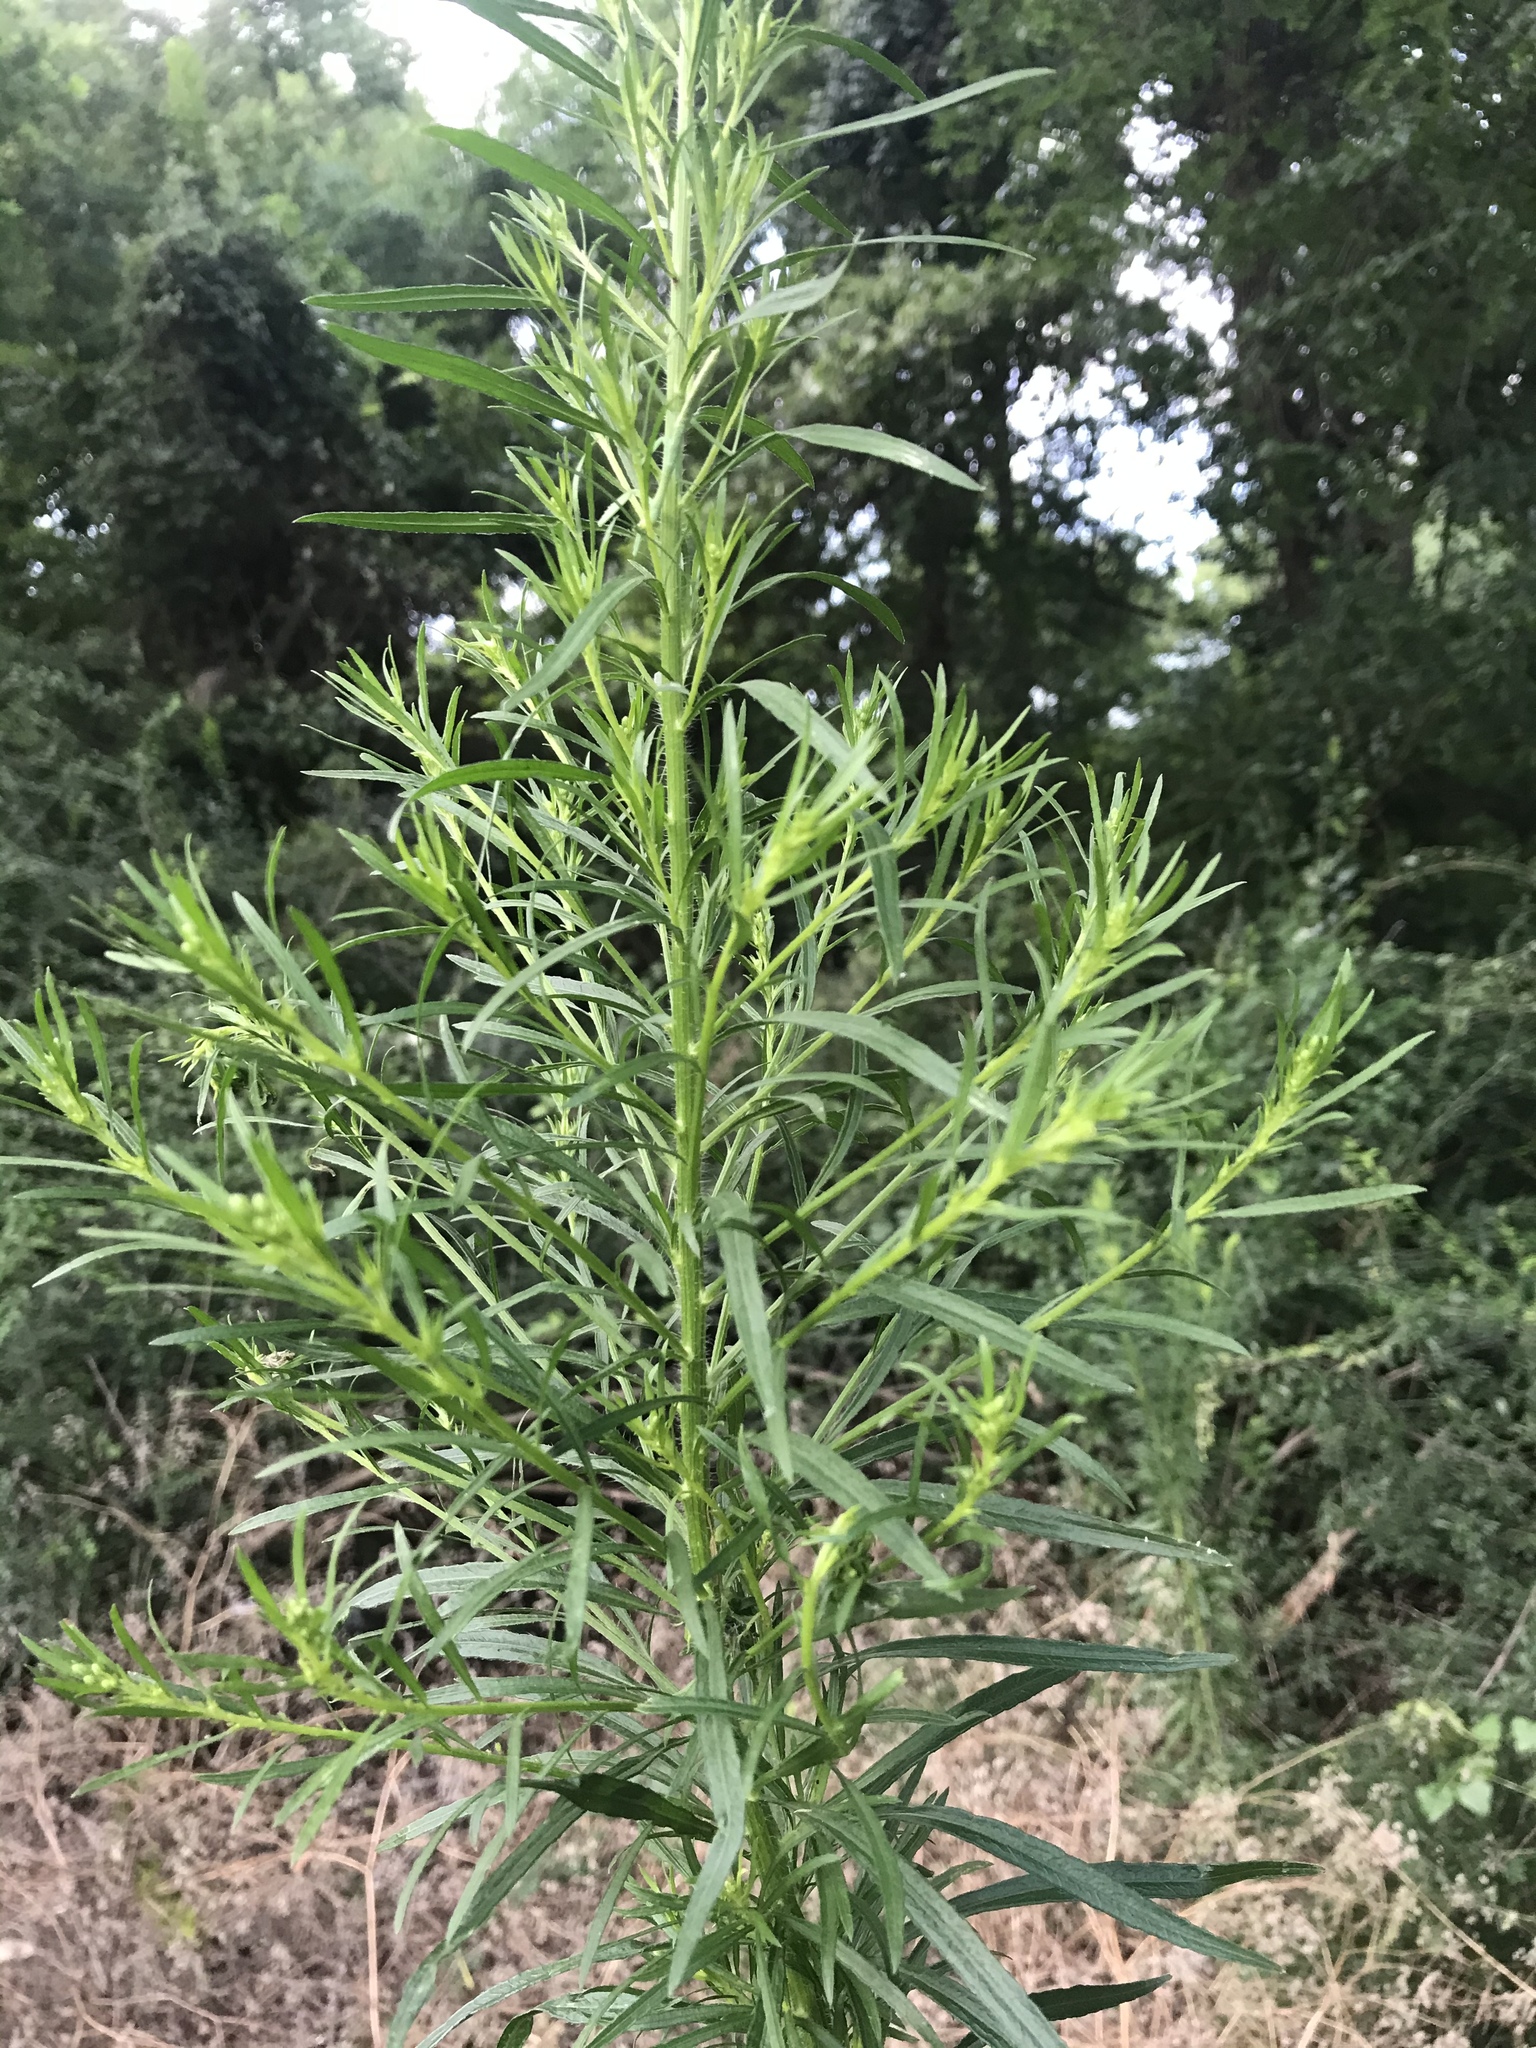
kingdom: Plantae
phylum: Tracheophyta
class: Magnoliopsida
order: Asterales
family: Asteraceae
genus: Erigeron
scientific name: Erigeron canadensis
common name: Canadian fleabane
